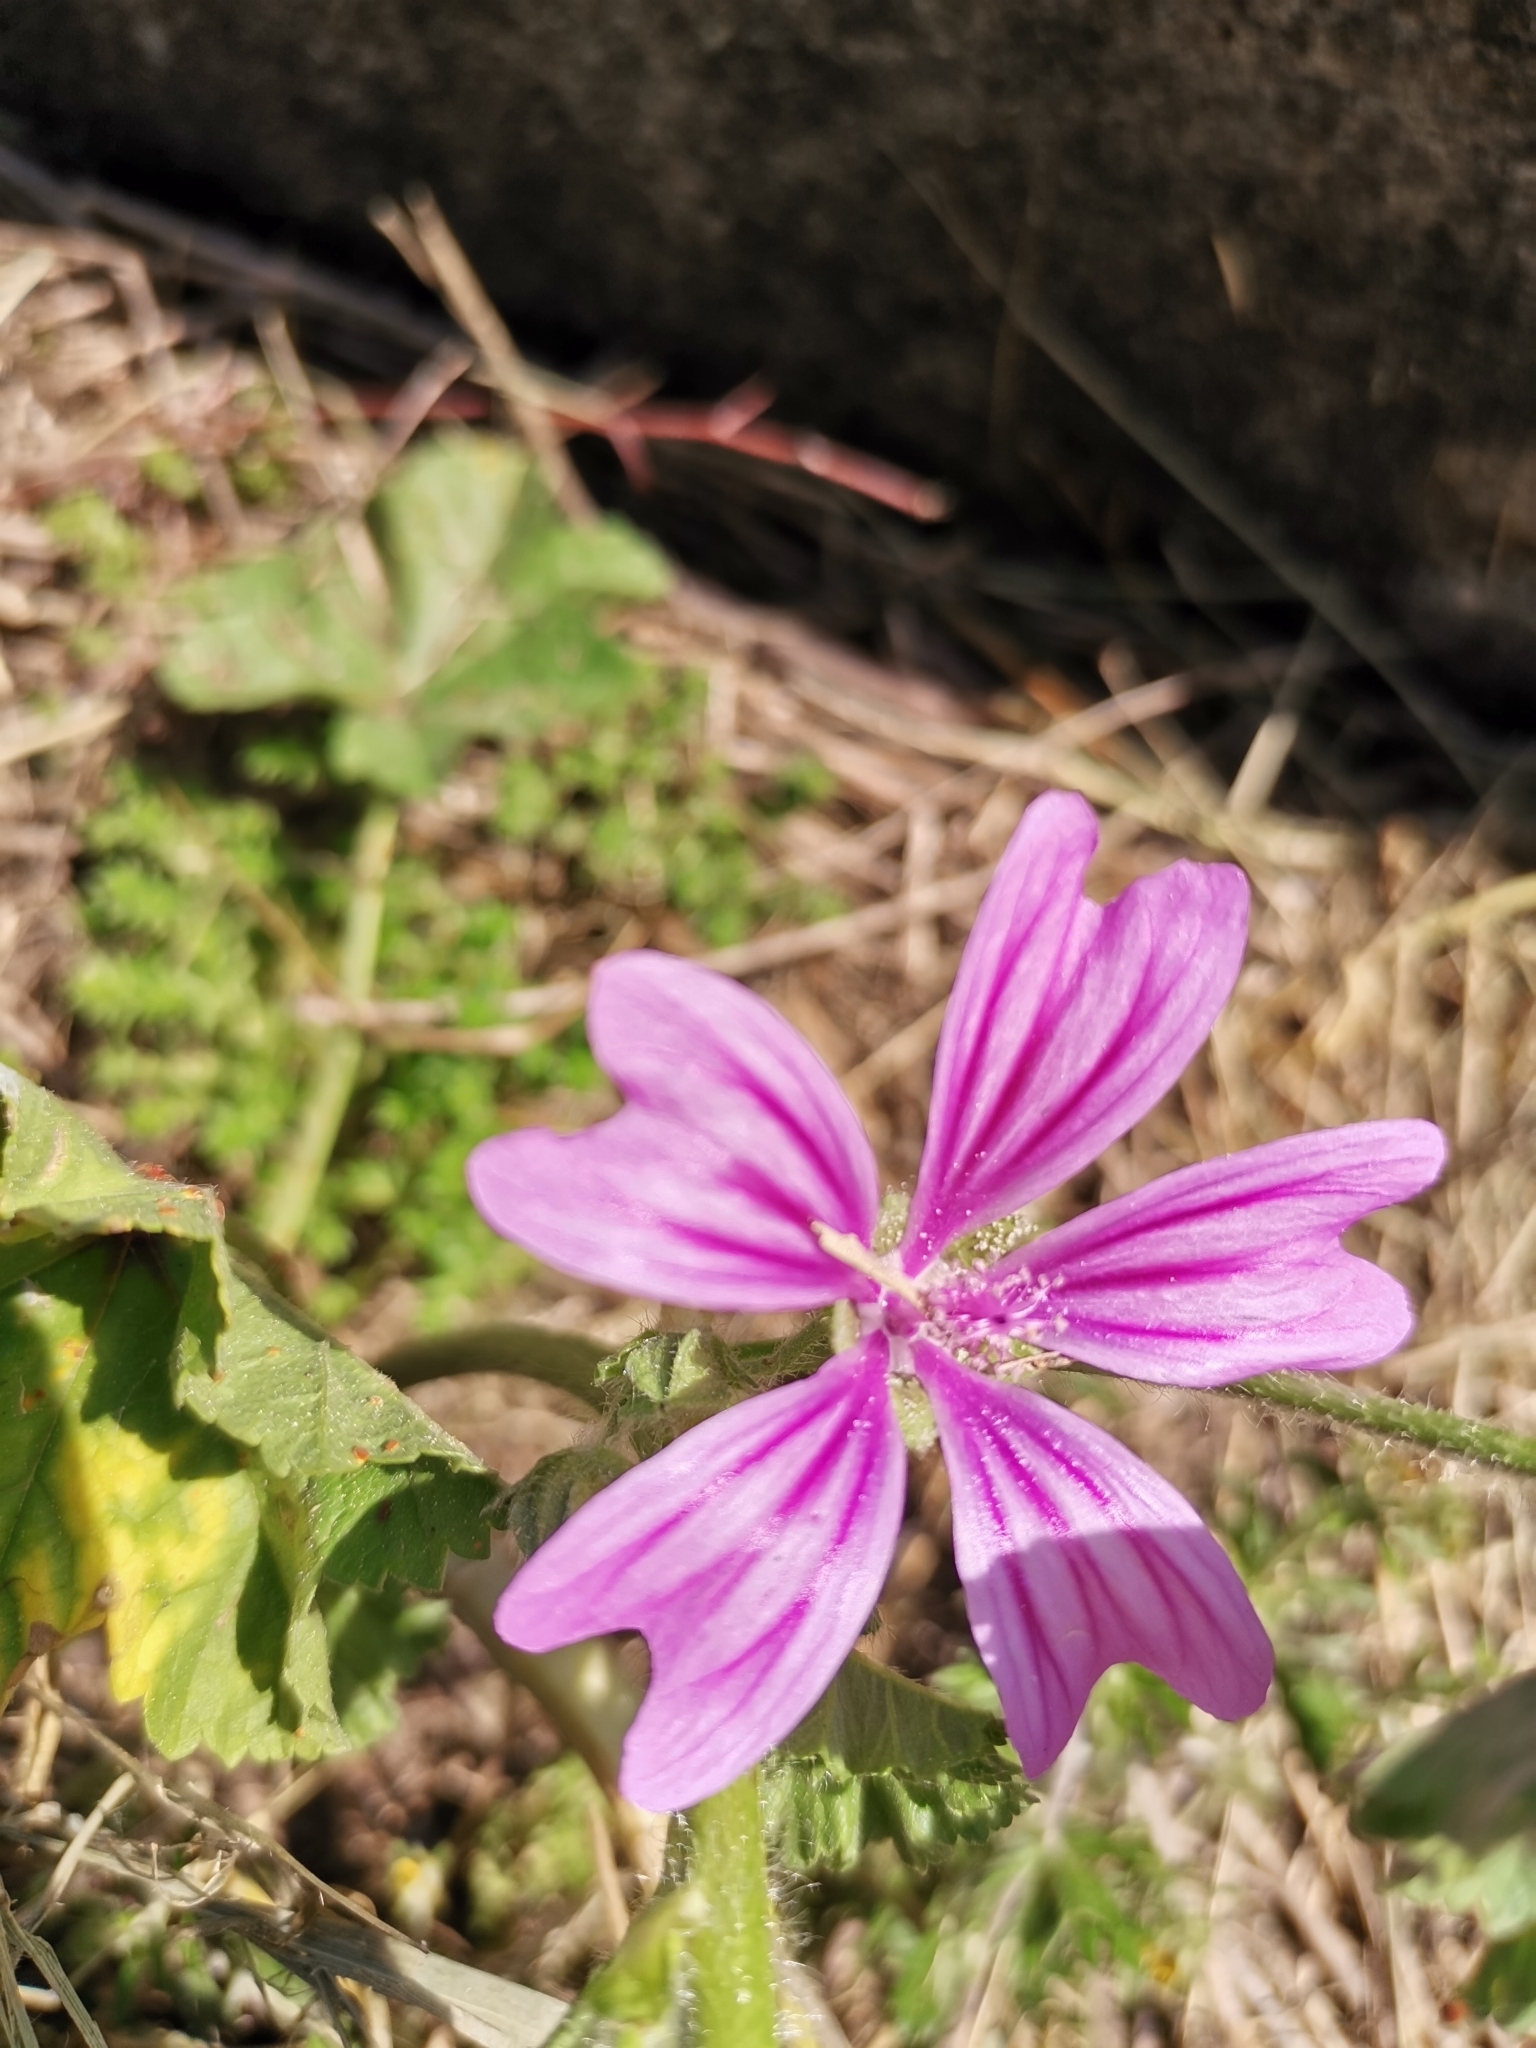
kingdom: Plantae
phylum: Tracheophyta
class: Magnoliopsida
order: Malvales
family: Malvaceae
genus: Malva
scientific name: Malva sylvestris
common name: Common mallow
